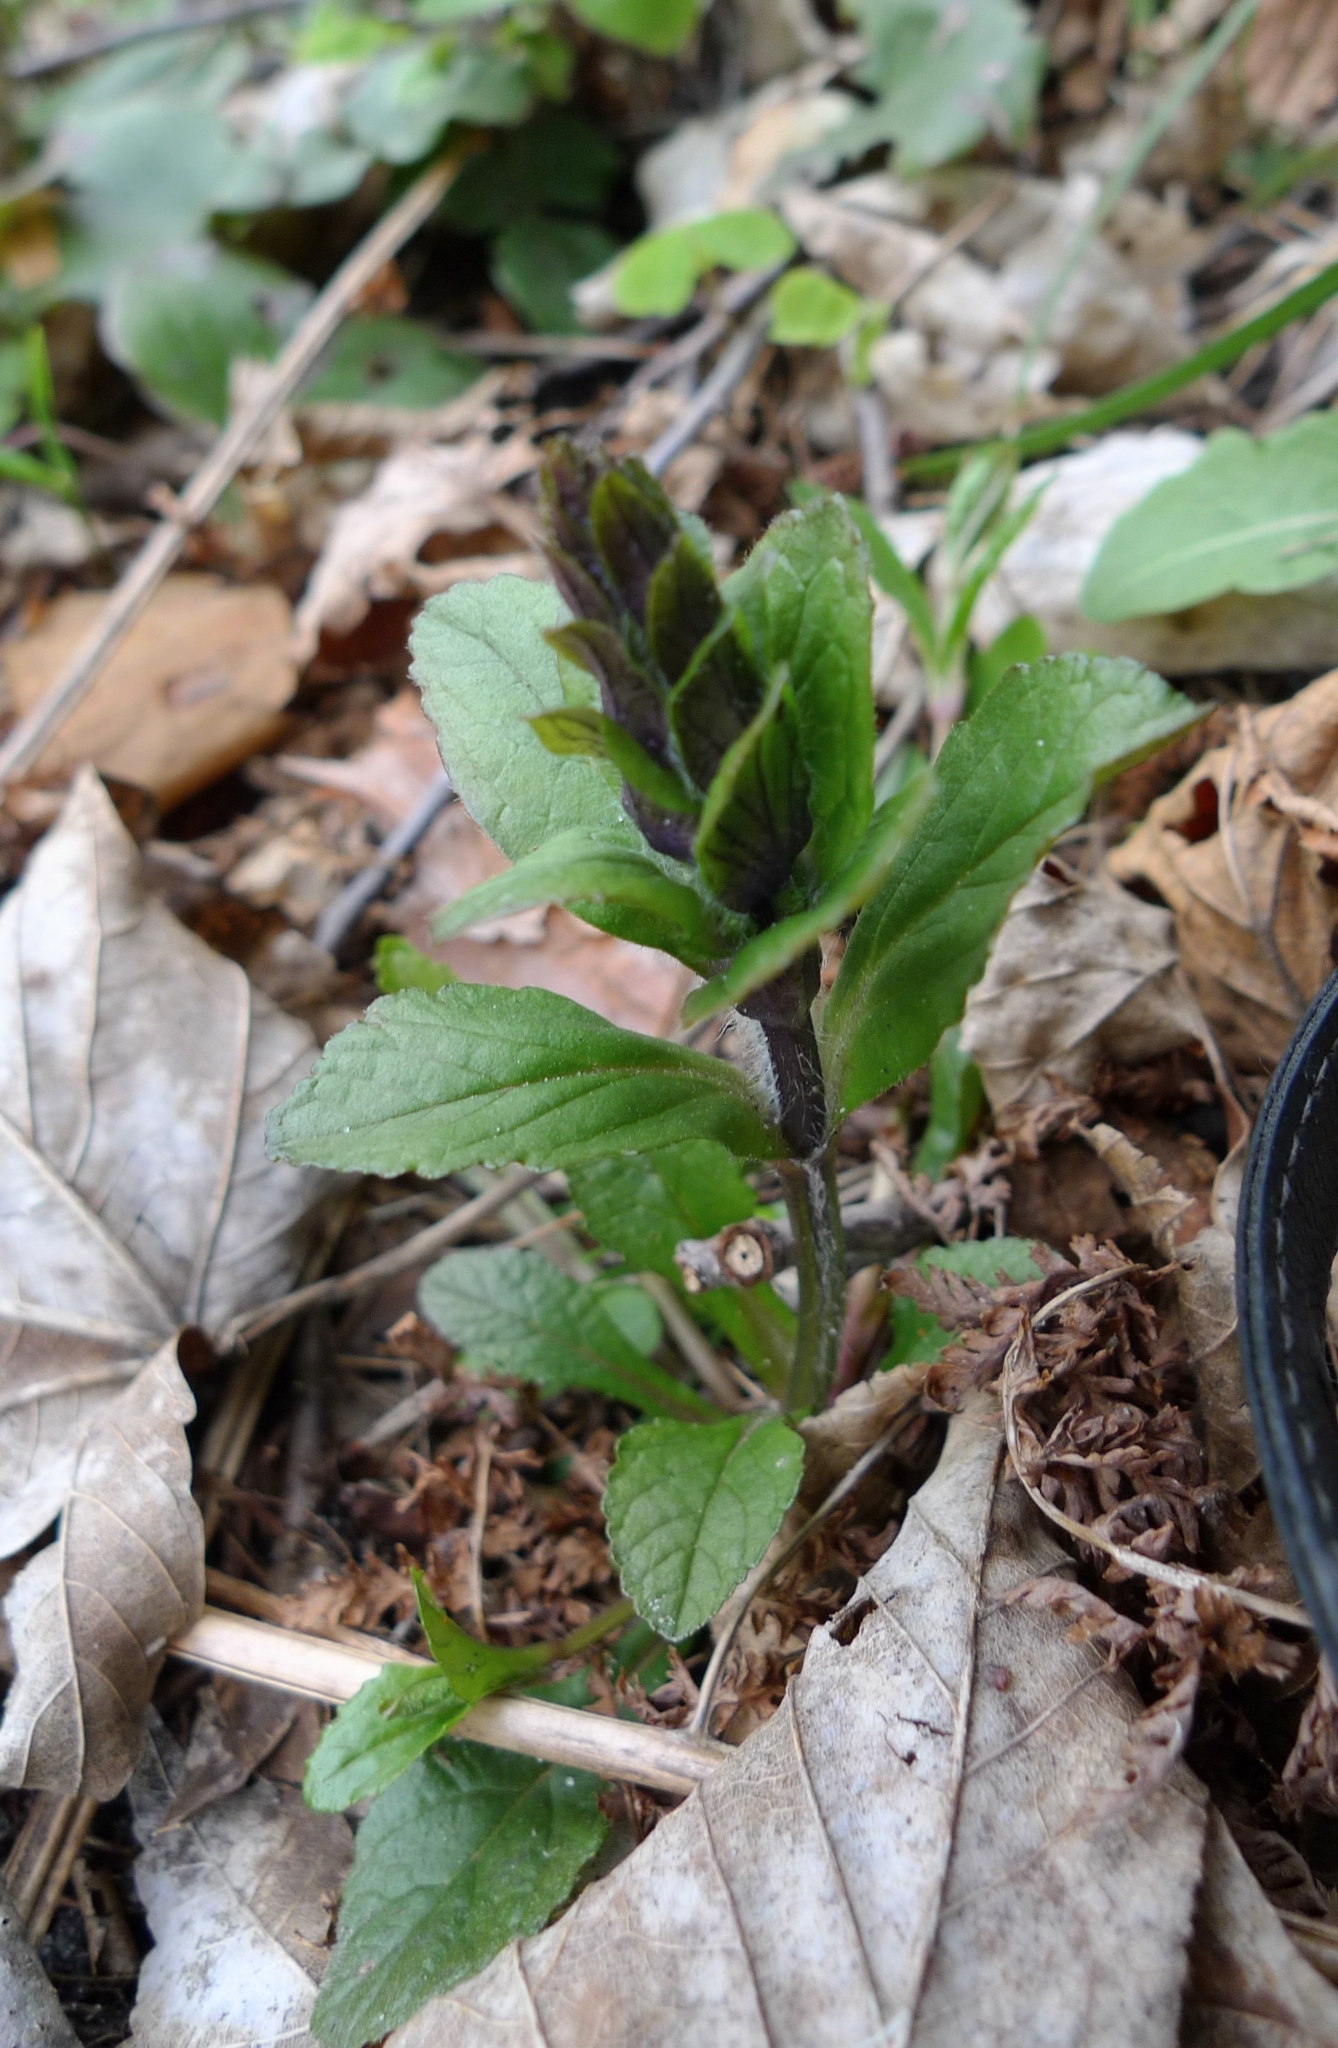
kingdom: Plantae
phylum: Tracheophyta
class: Magnoliopsida
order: Lamiales
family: Lamiaceae
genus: Ajuga
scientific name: Ajuga reptans
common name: Bugle
